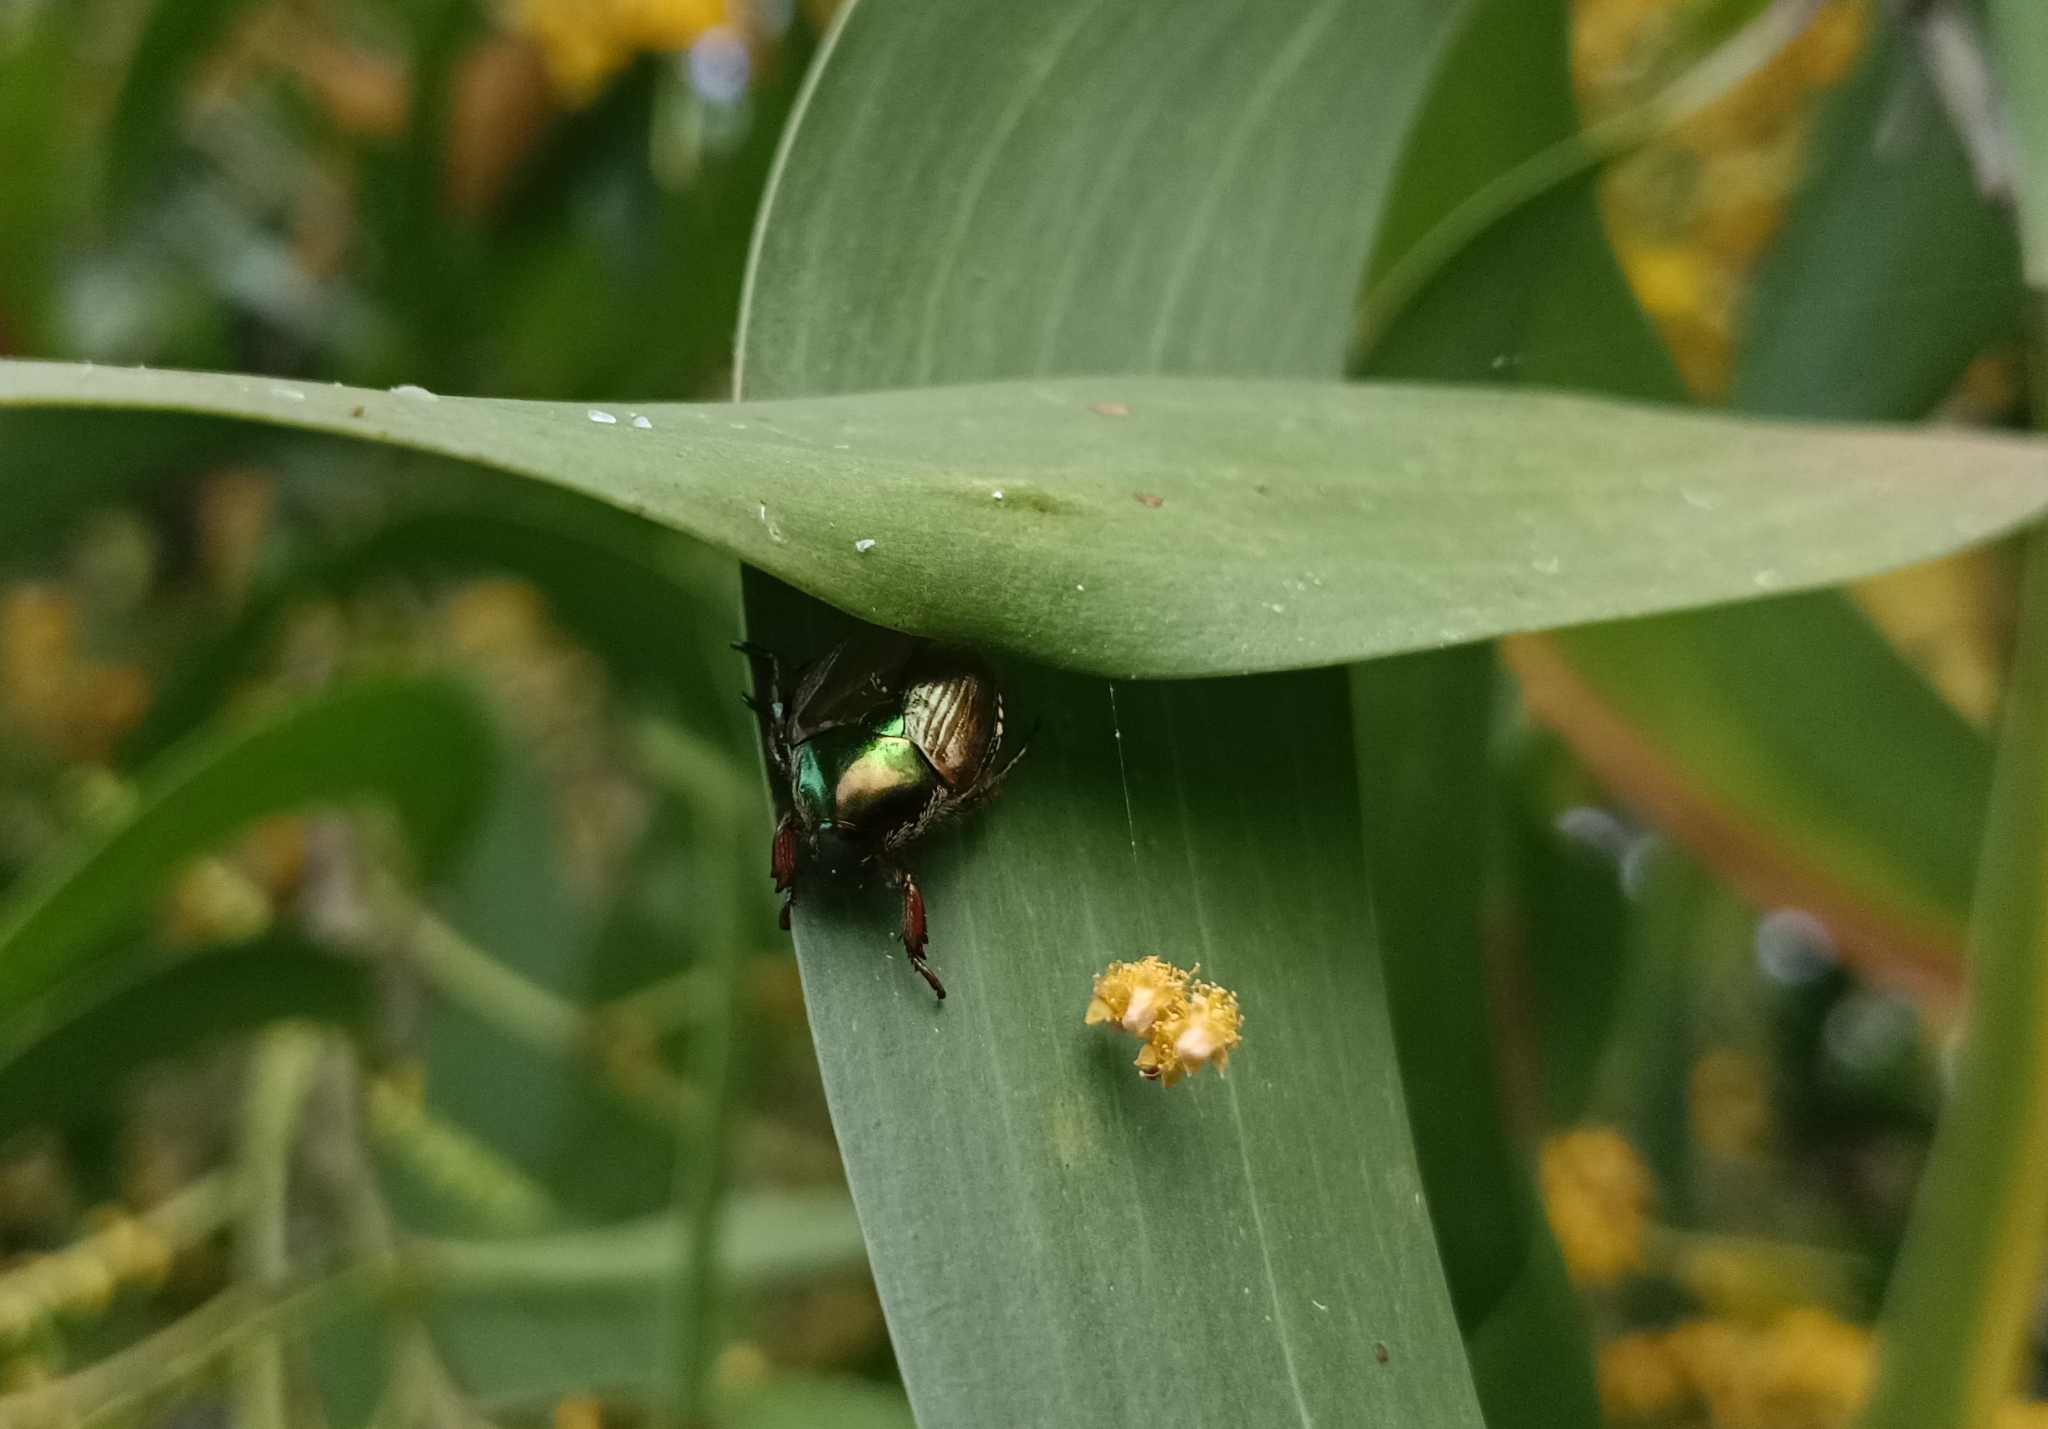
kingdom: Animalia
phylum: Arthropoda
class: Insecta
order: Coleoptera
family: Scarabaeidae
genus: Popillia
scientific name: Popillia japonica
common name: Japanese beetle
